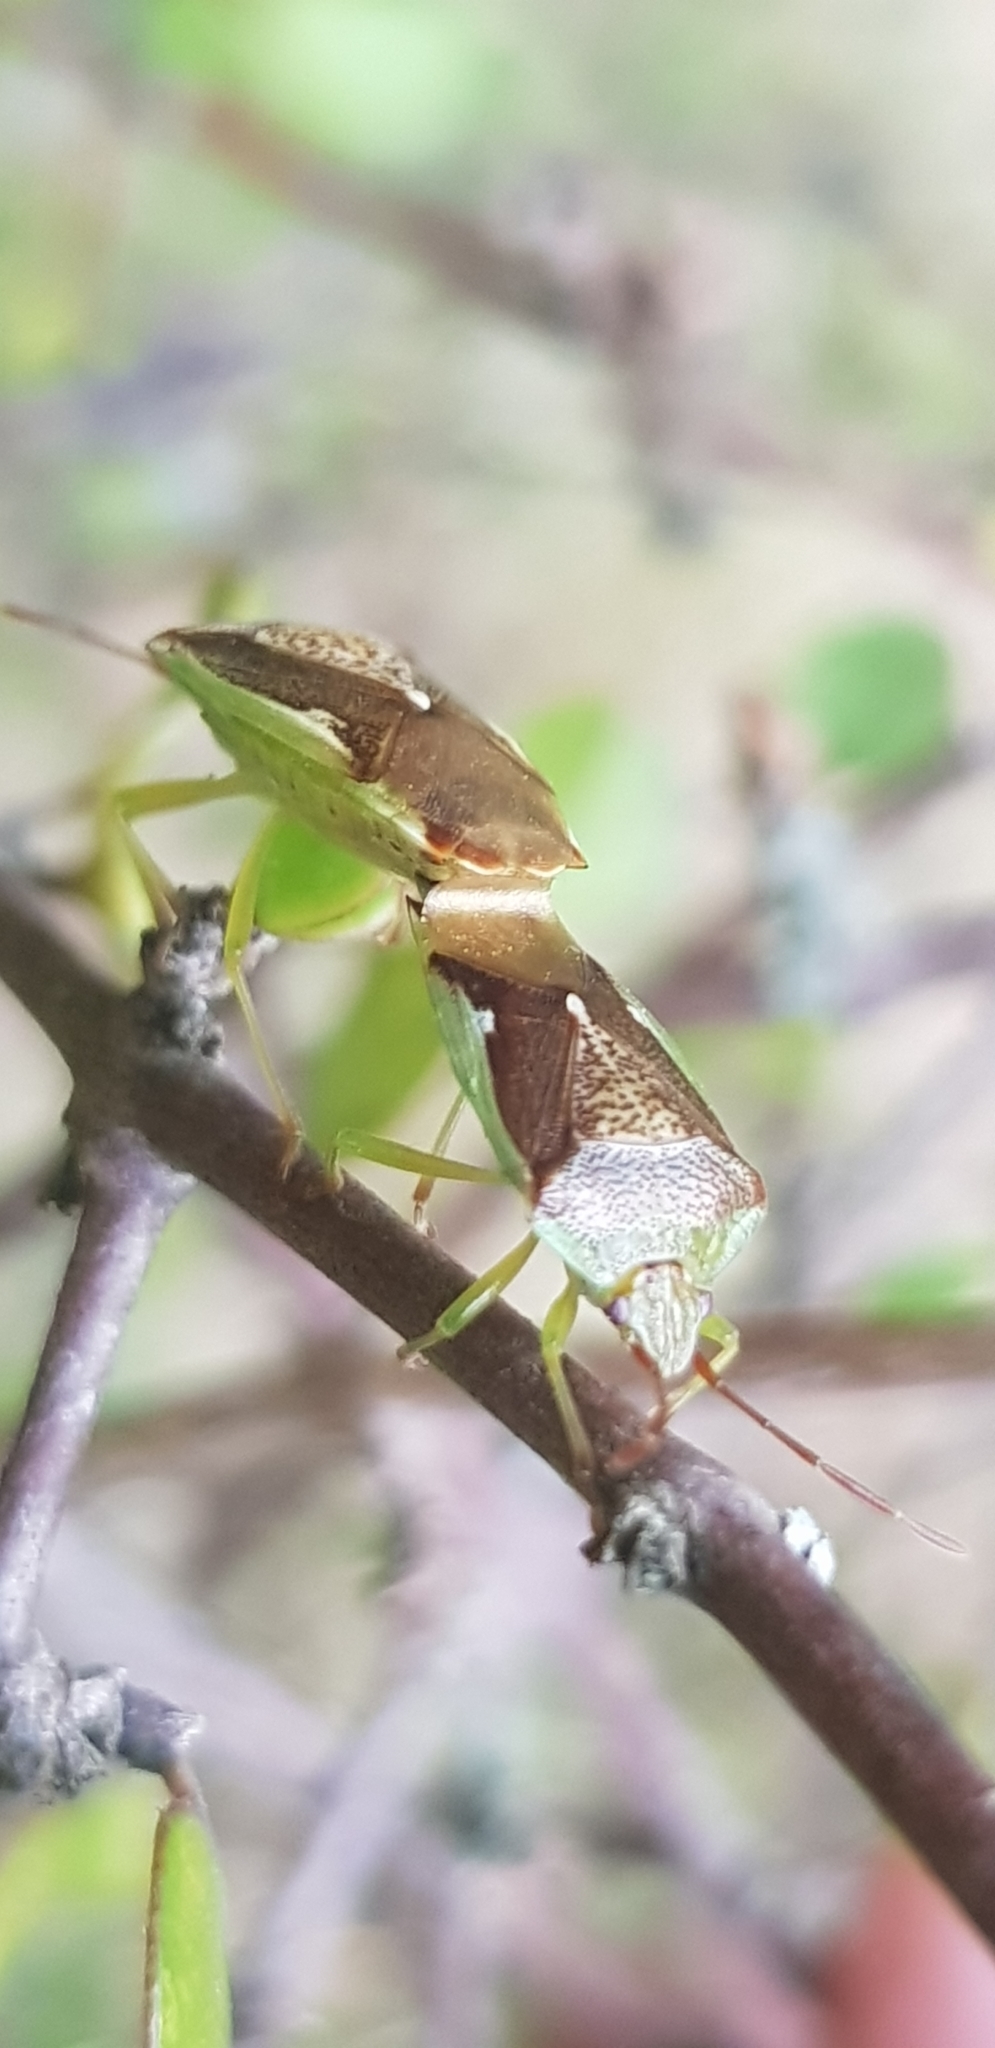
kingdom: Animalia
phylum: Arthropoda
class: Insecta
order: Hemiptera
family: Acanthosomatidae
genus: Oncacontias
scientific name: Oncacontias vittatus
